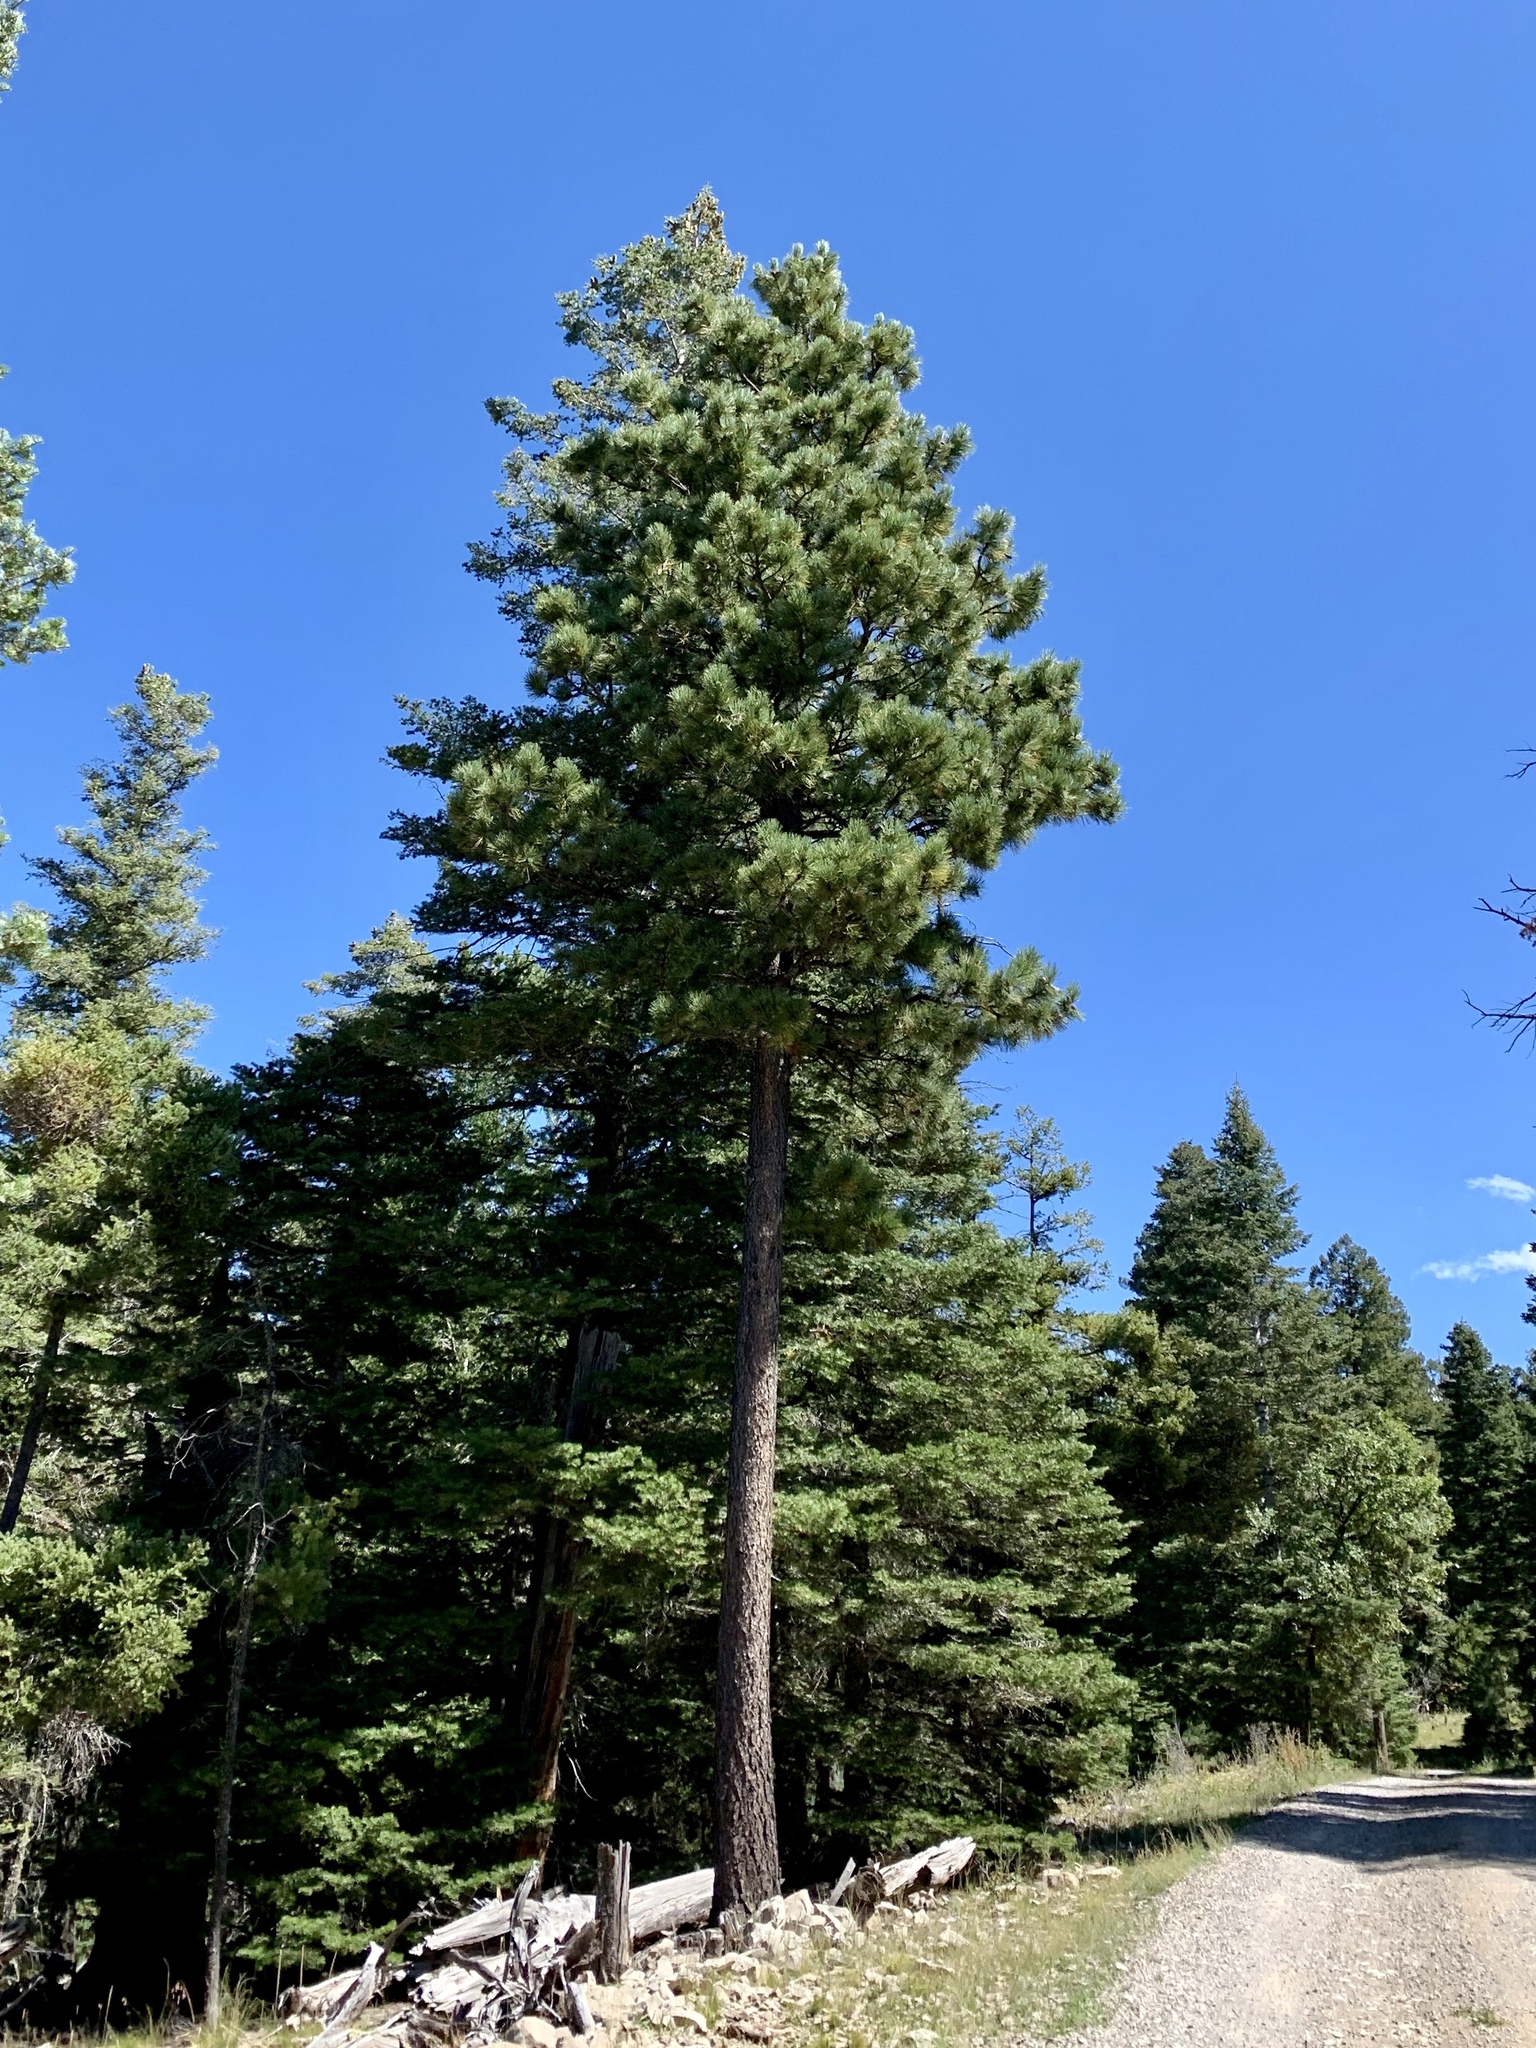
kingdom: Plantae
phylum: Tracheophyta
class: Pinopsida
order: Pinales
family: Pinaceae
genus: Pinus
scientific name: Pinus ponderosa
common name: Western yellow-pine
